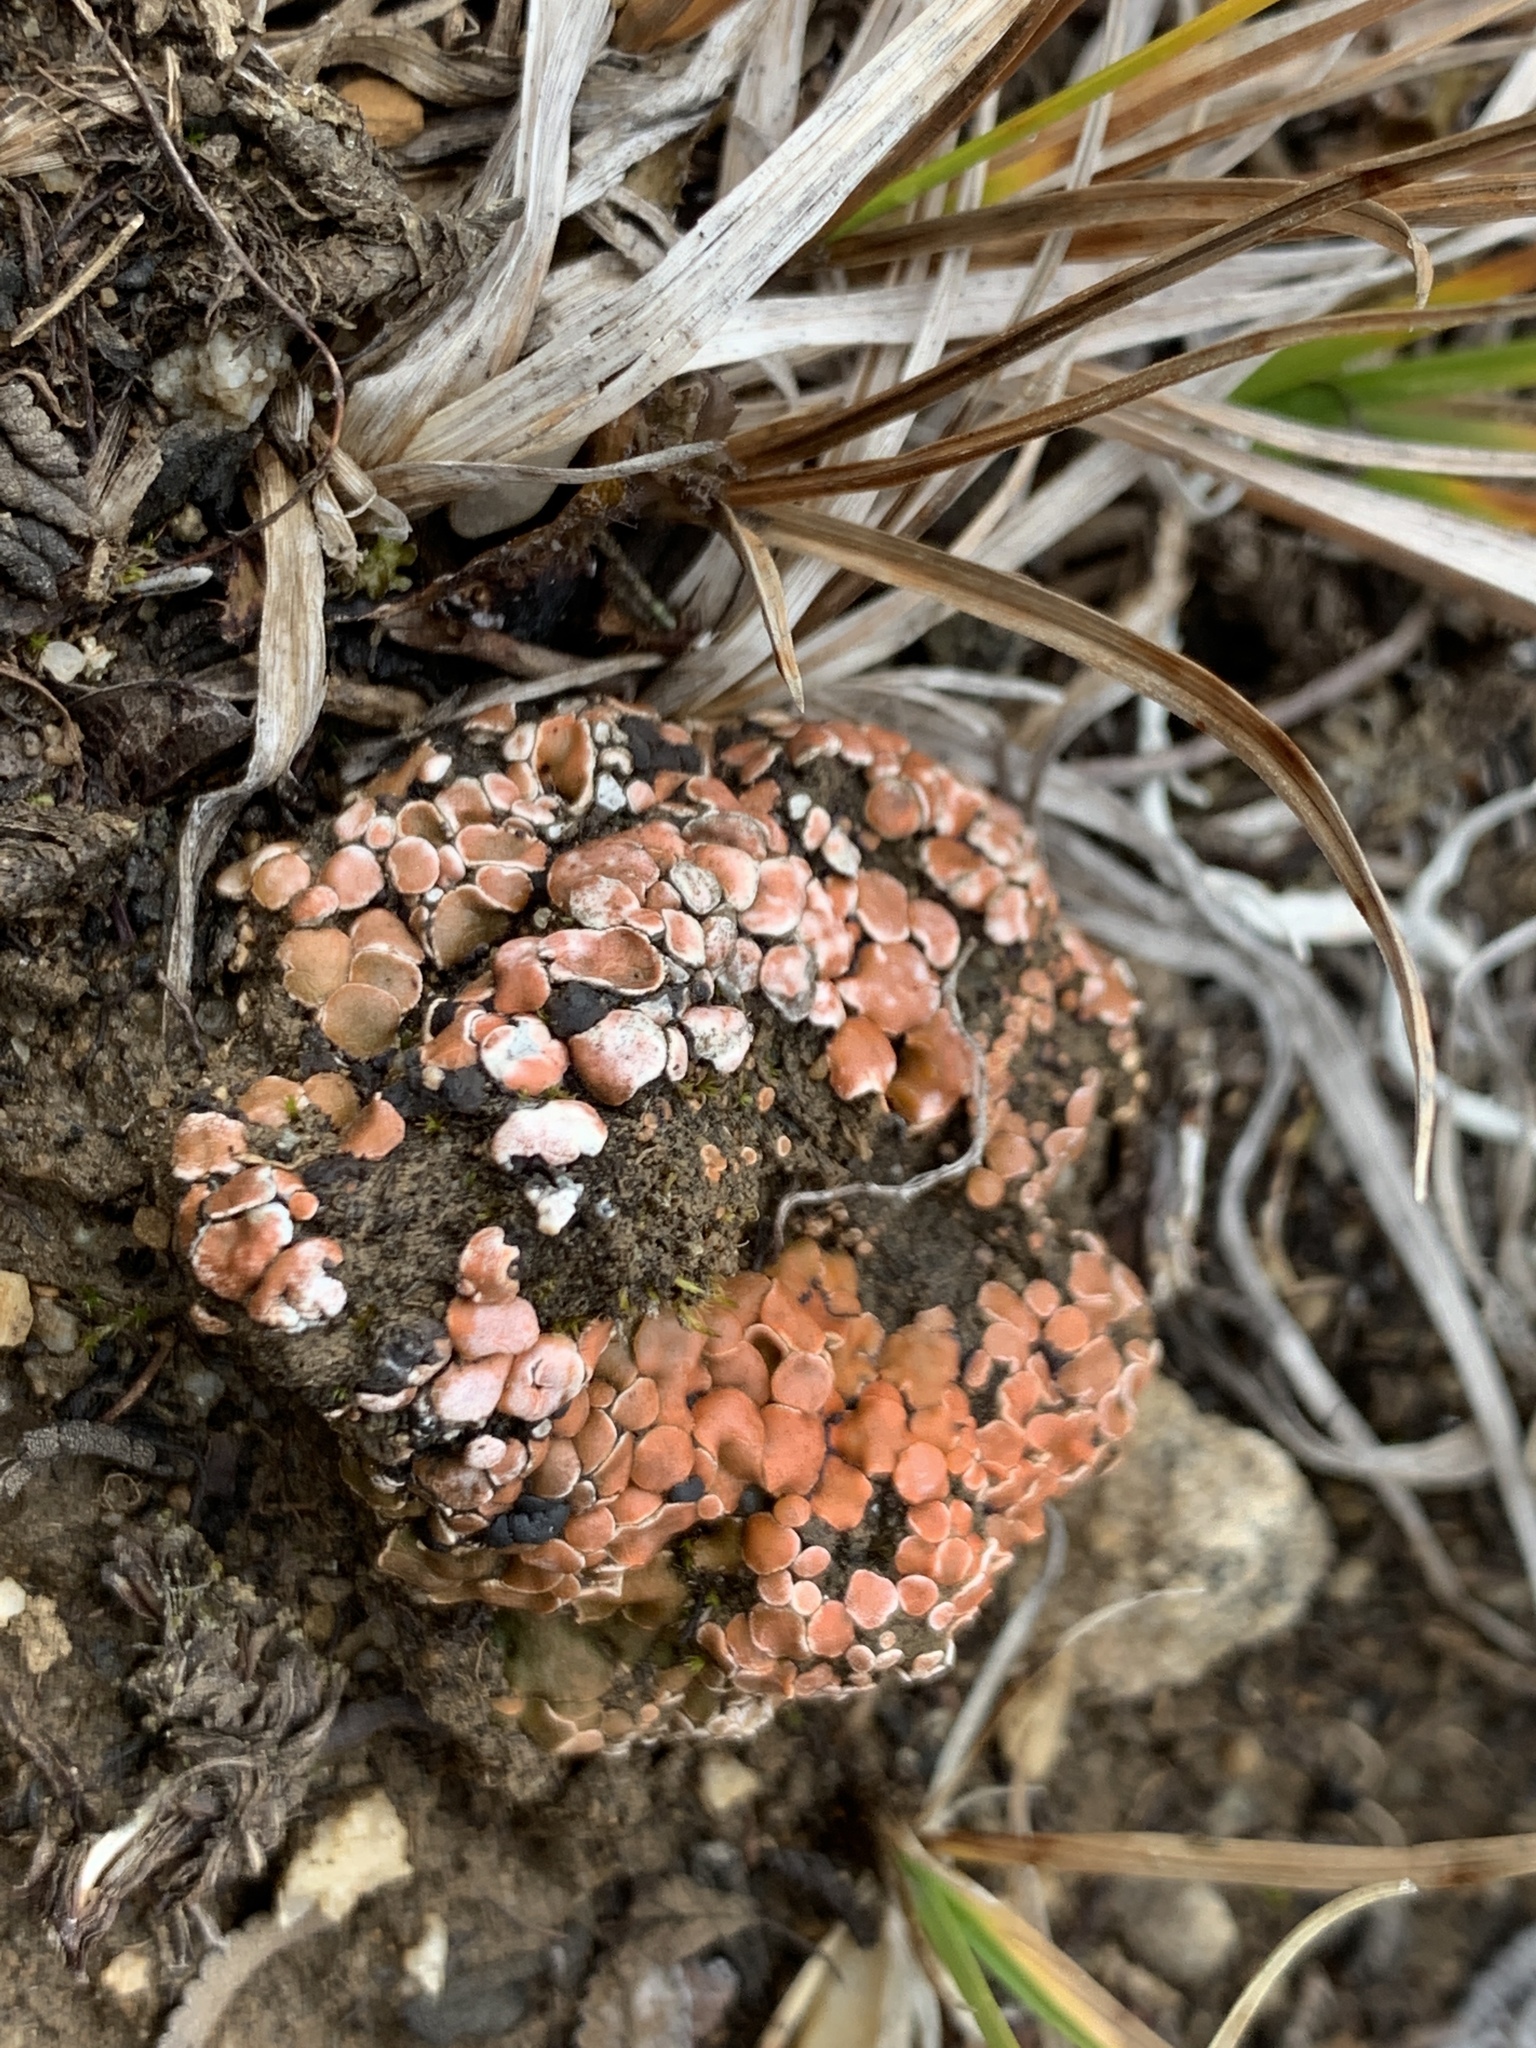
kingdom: Fungi
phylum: Ascomycota
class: Lecanoromycetes
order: Lecanorales
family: Psoraceae
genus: Psora
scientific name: Psora decipiens
